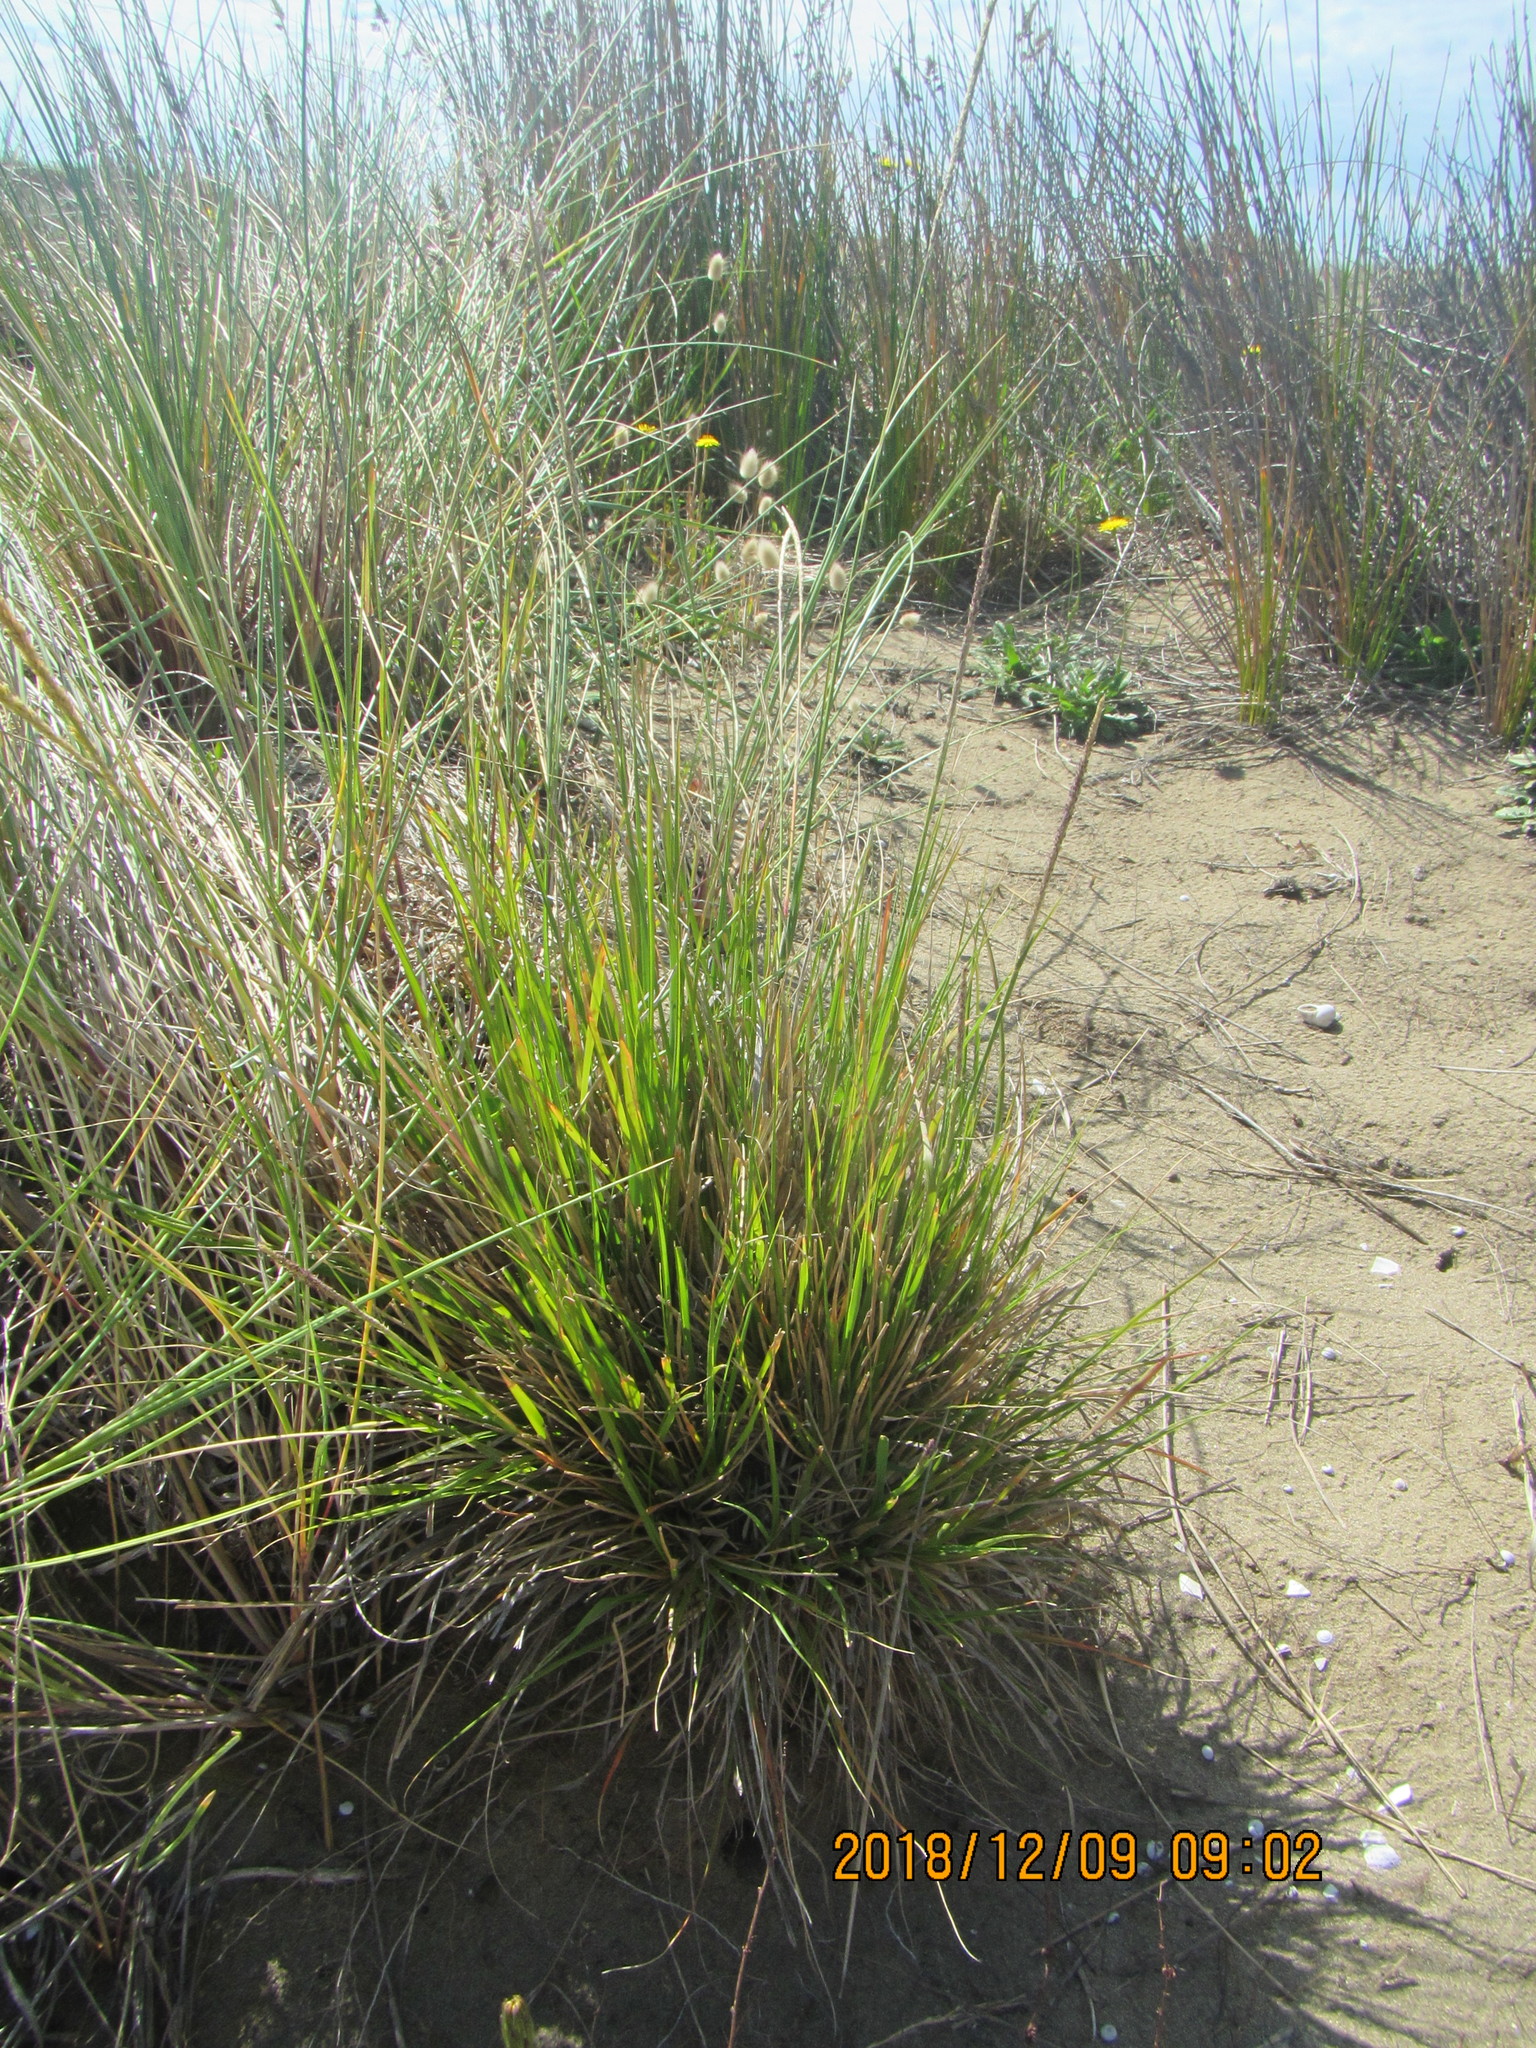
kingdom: Plantae
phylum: Tracheophyta
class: Liliopsida
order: Poales
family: Poaceae
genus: Sporobolus
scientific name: Sporobolus africanus
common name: African dropseed
